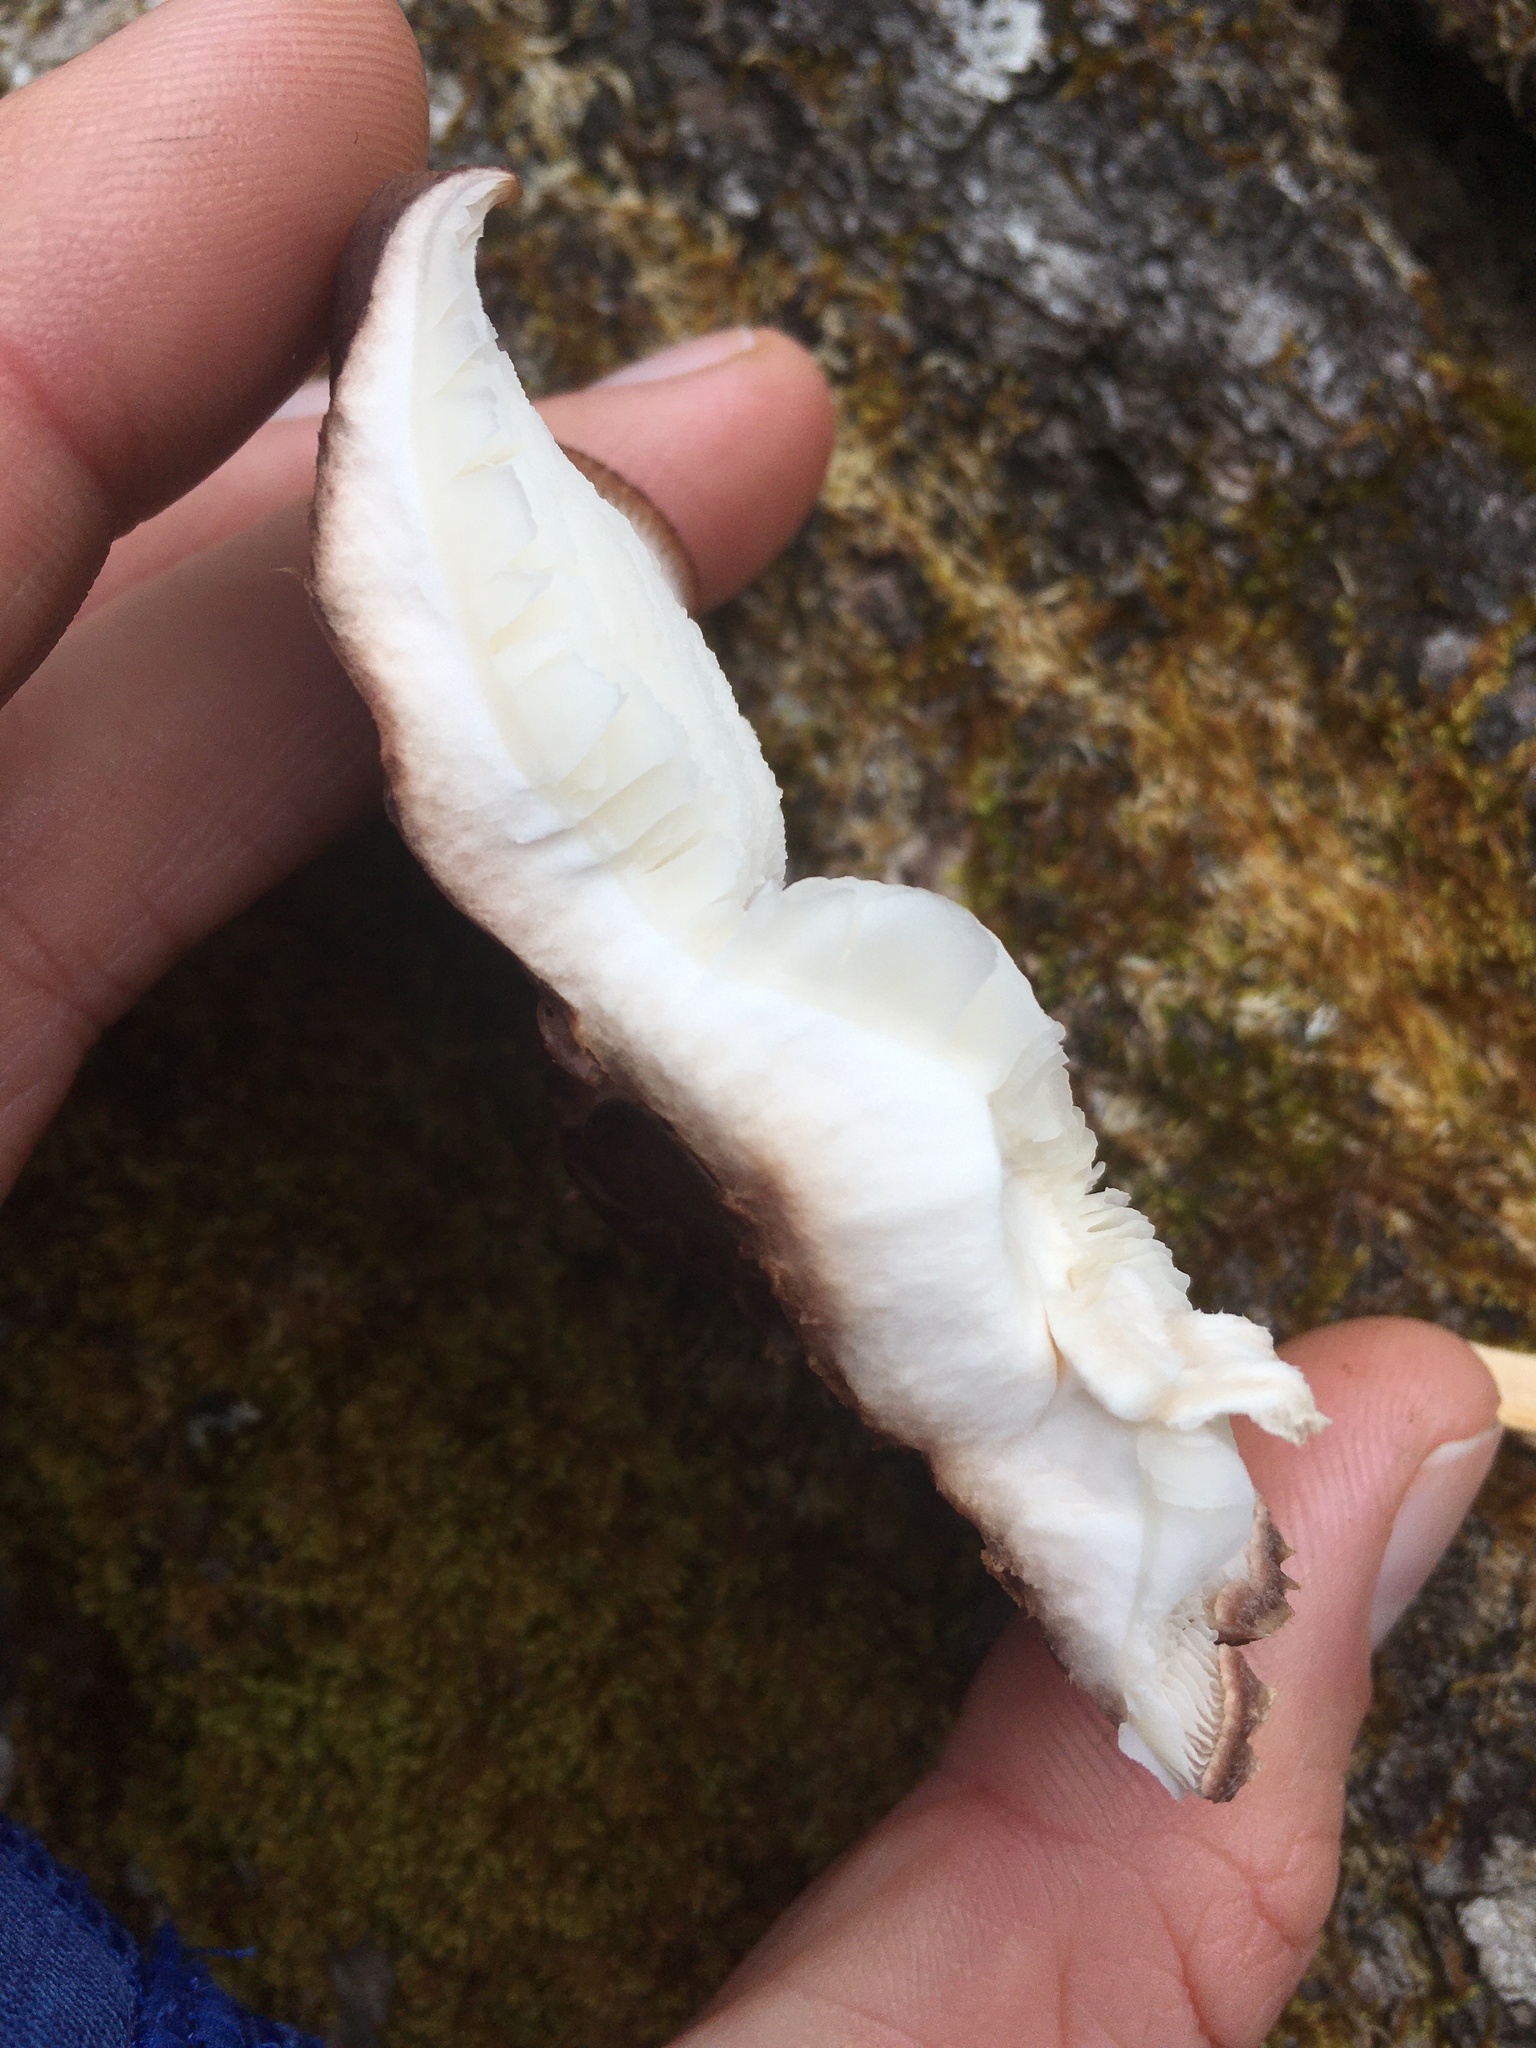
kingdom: Fungi
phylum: Basidiomycota
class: Agaricomycetes
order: Agaricales
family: Omphalotaceae
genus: Lentinula
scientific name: Lentinula edodes
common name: Shiitake
